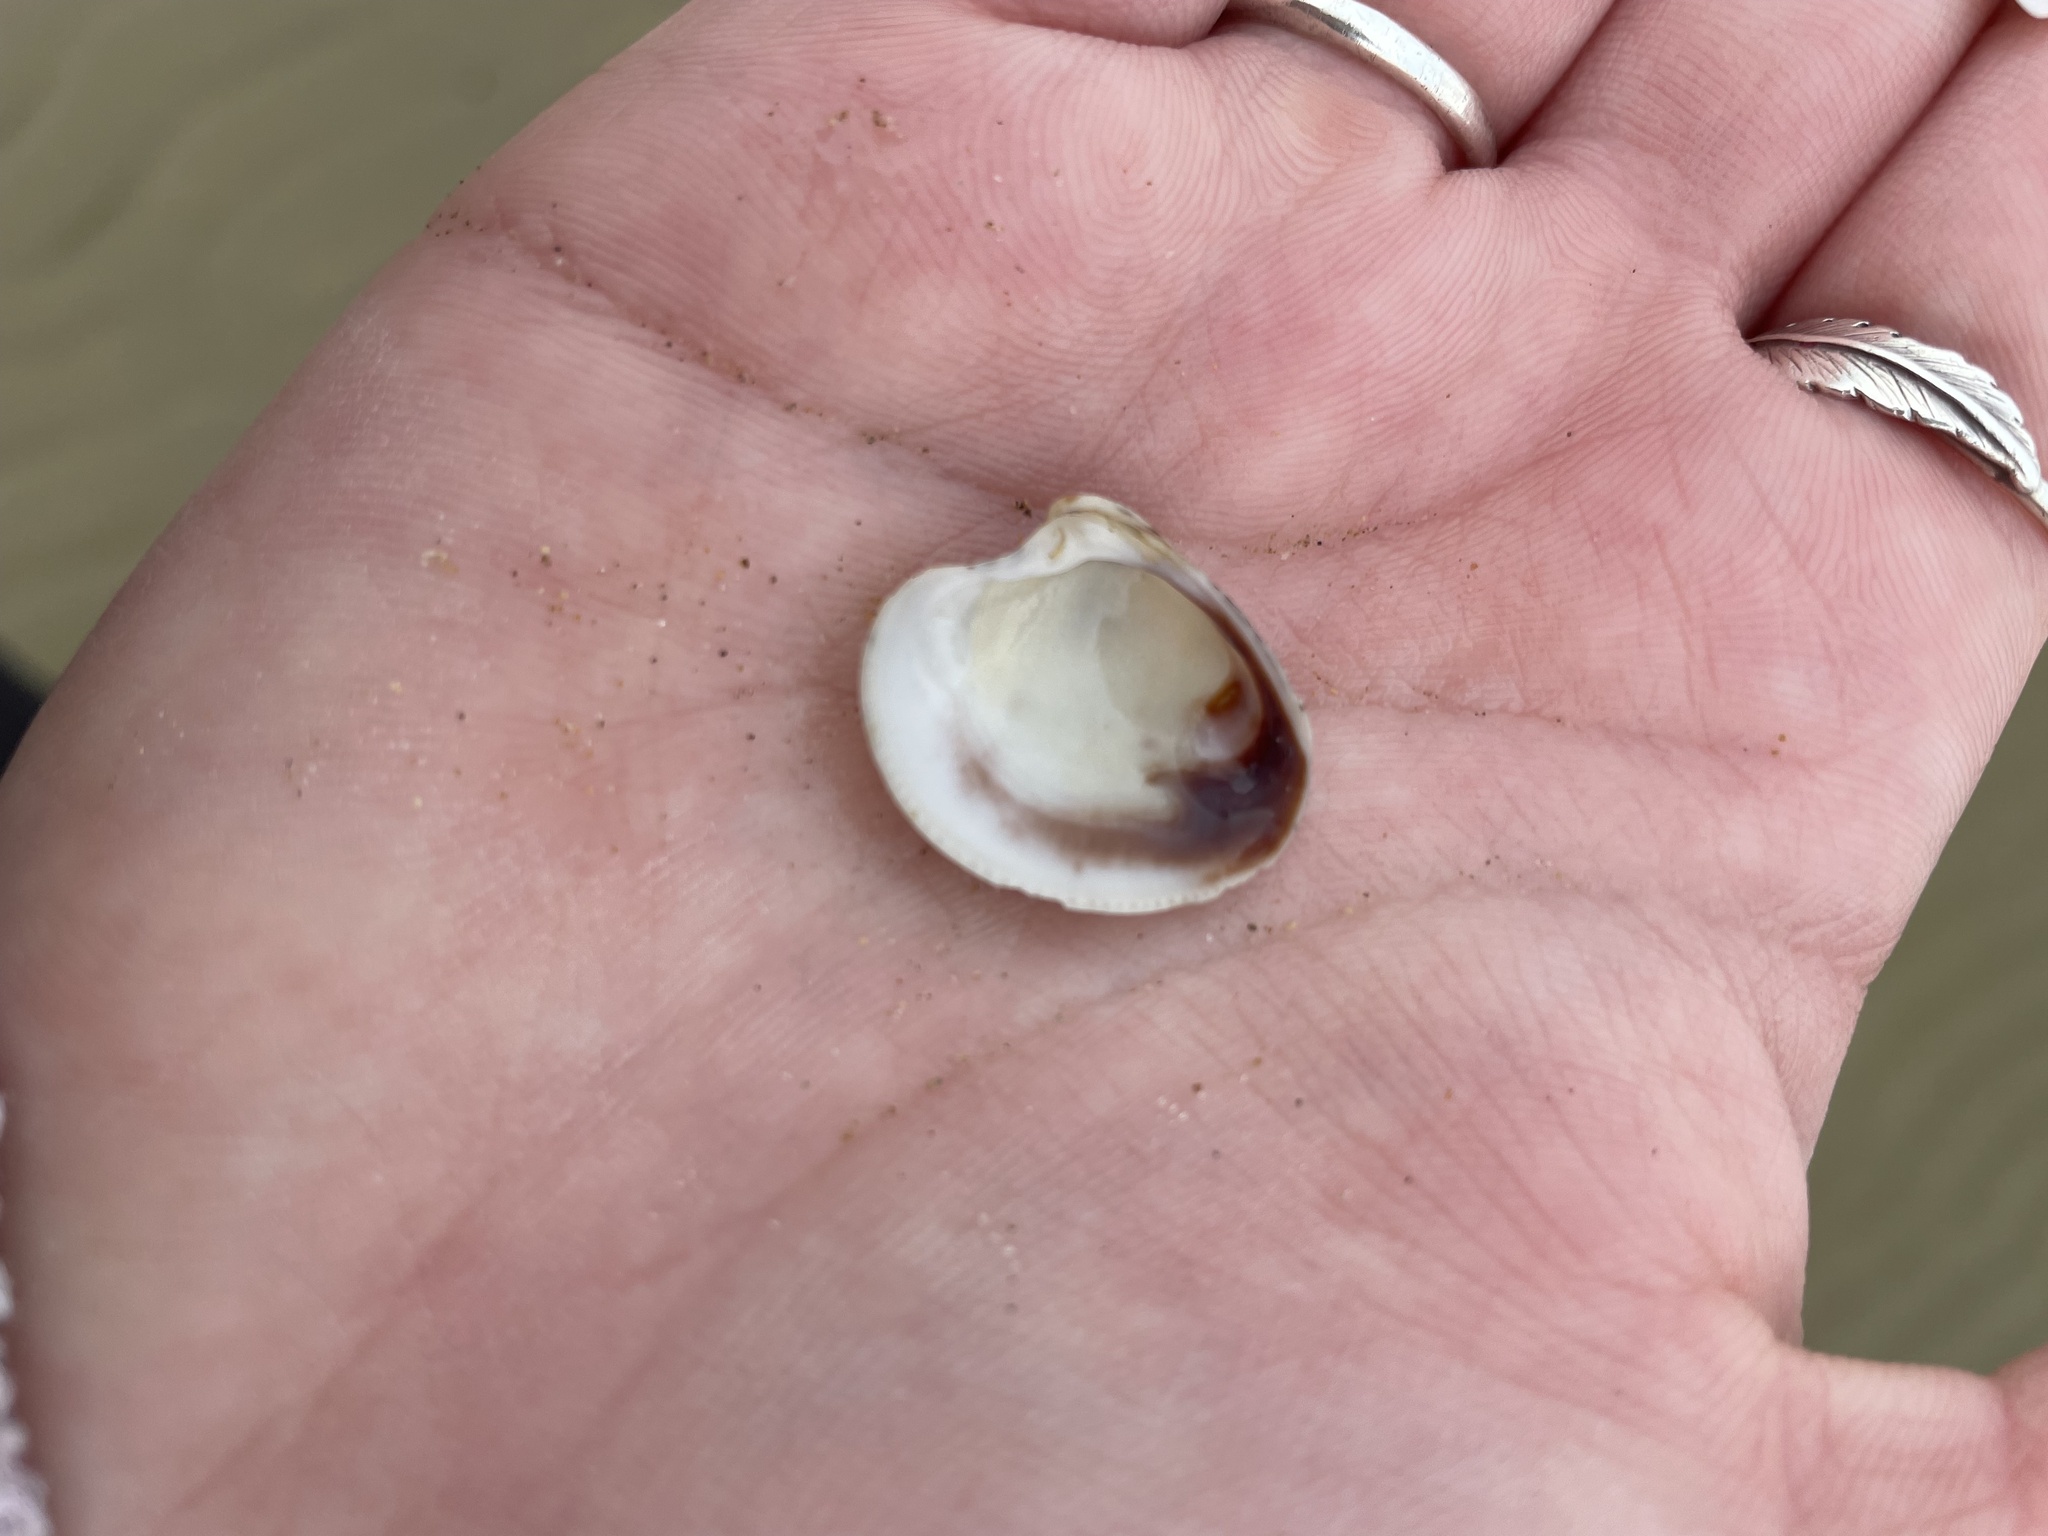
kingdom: Animalia
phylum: Mollusca
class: Bivalvia
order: Venerida
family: Veneridae
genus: Chamelea
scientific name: Chamelea gallina
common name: Chicken venus
